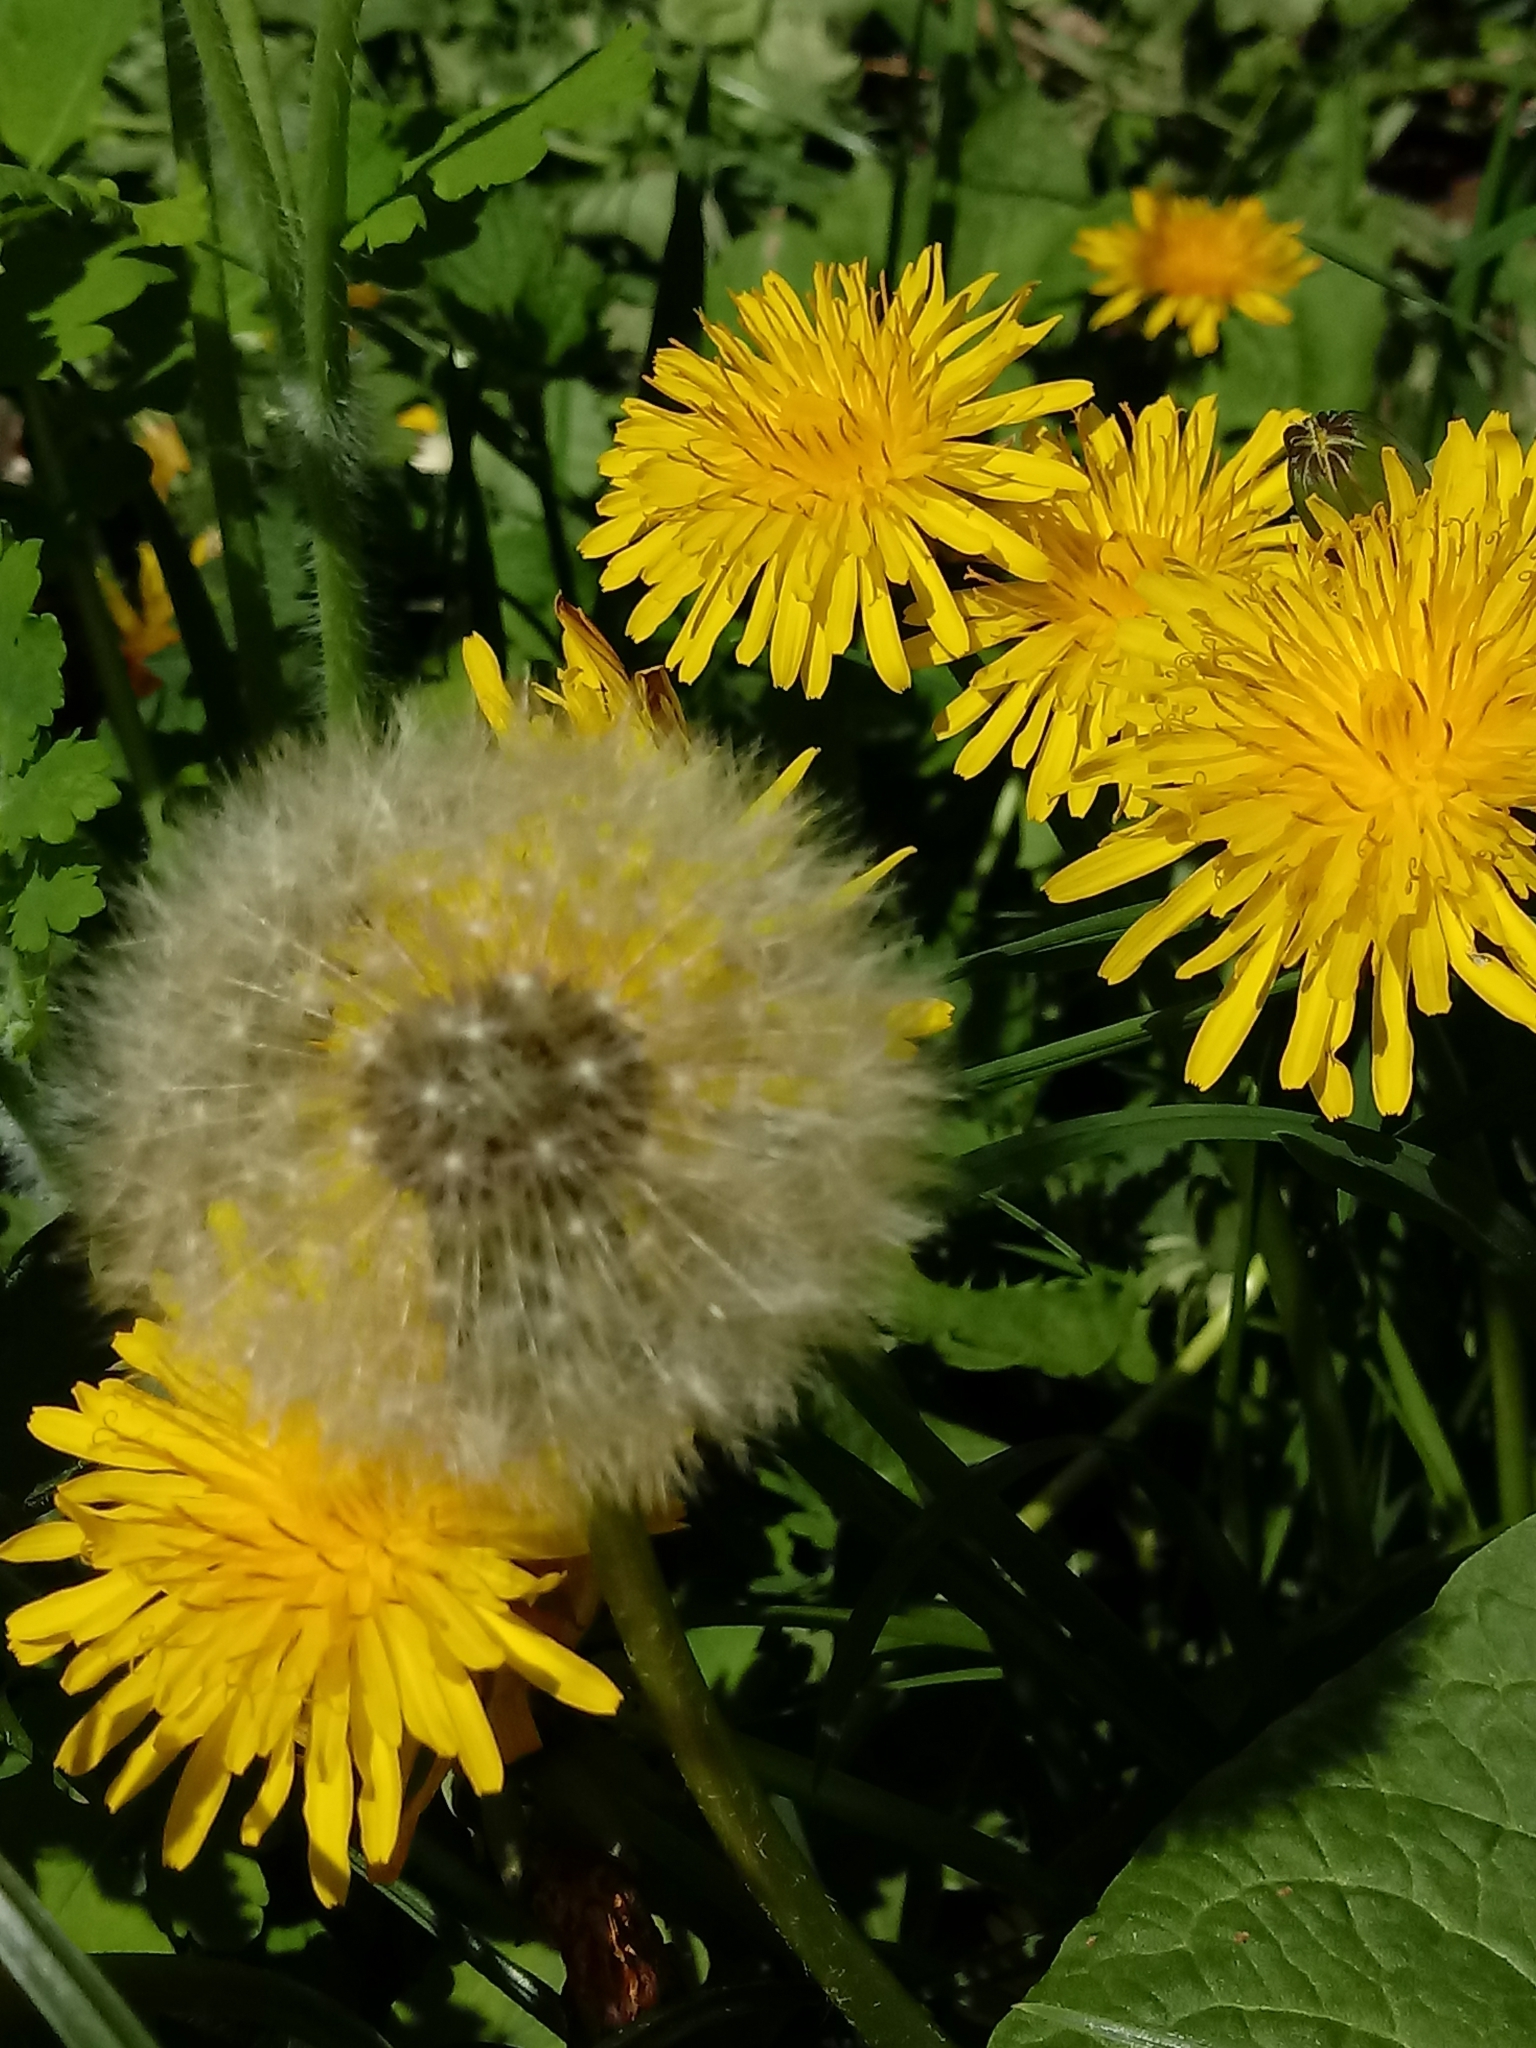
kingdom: Plantae
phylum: Tracheophyta
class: Magnoliopsida
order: Asterales
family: Asteraceae
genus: Taraxacum
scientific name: Taraxacum officinale
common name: Common dandelion
